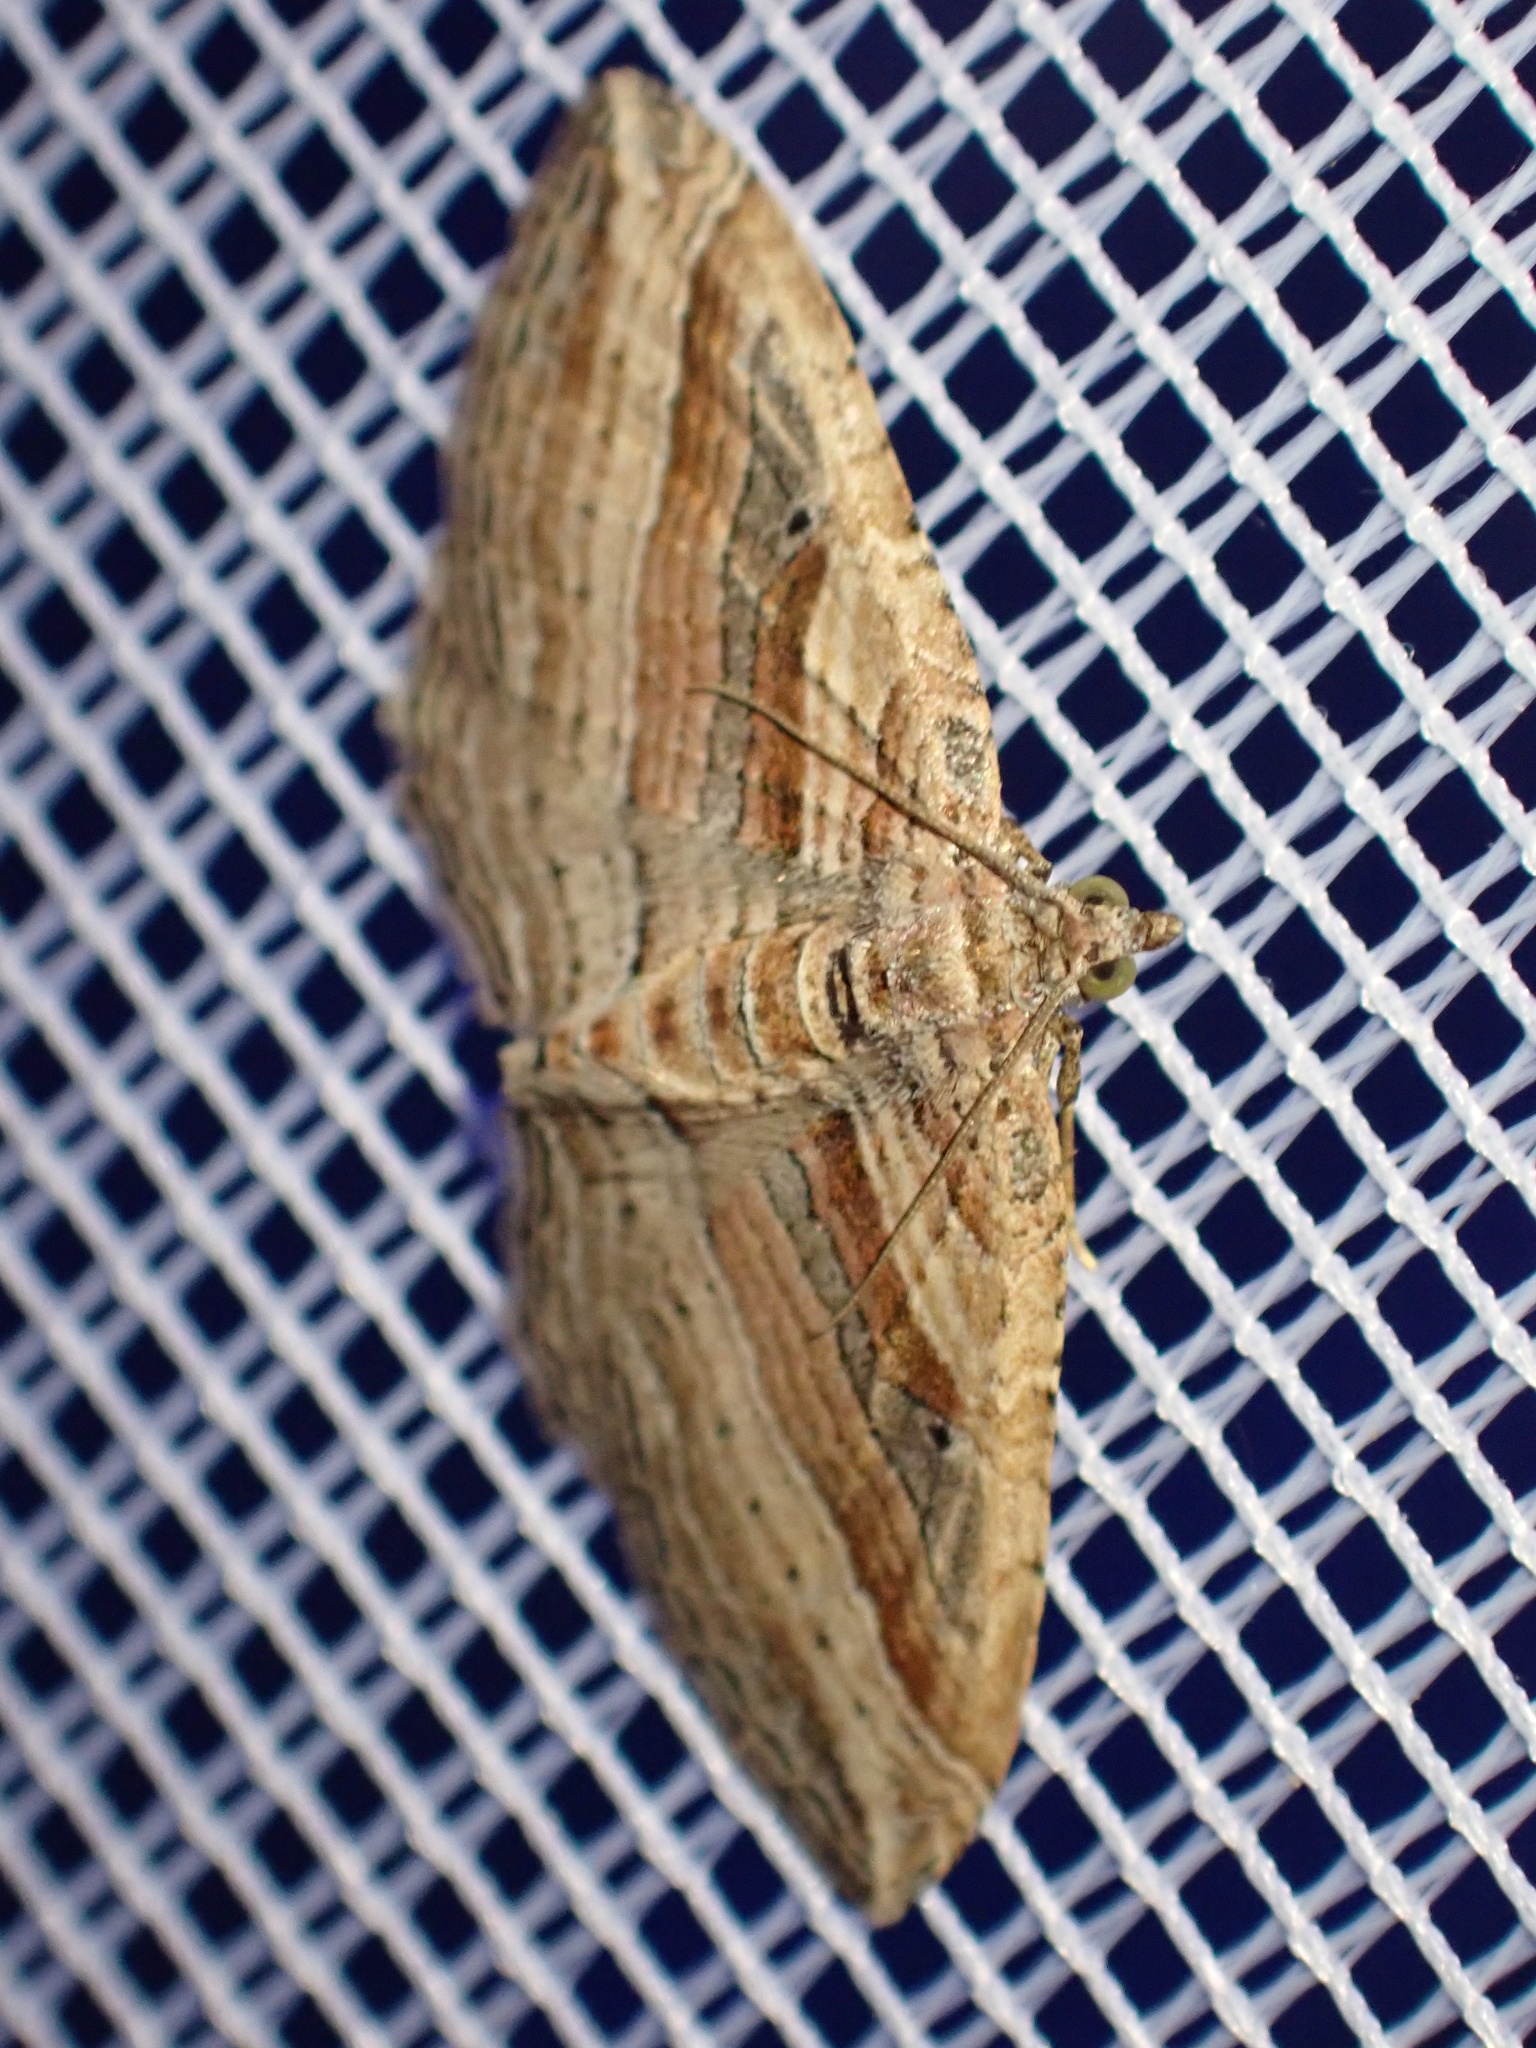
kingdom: Animalia
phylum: Arthropoda
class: Insecta
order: Lepidoptera
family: Geometridae
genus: Costaconvexa
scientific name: Costaconvexa polygrammata
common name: Many-lined
